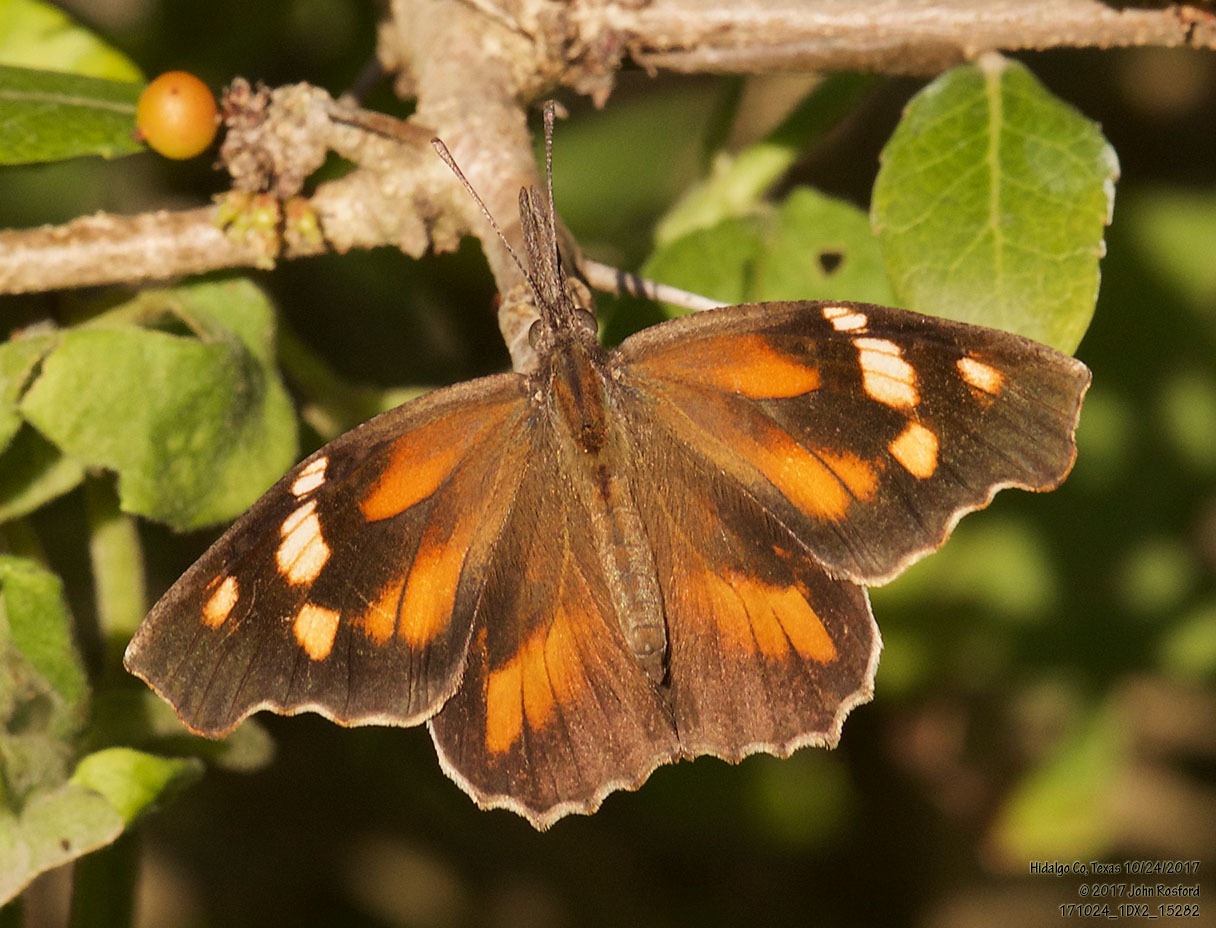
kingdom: Animalia
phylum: Arthropoda
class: Insecta
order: Lepidoptera
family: Nymphalidae
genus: Libytheana
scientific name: Libytheana carinenta
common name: American snout
